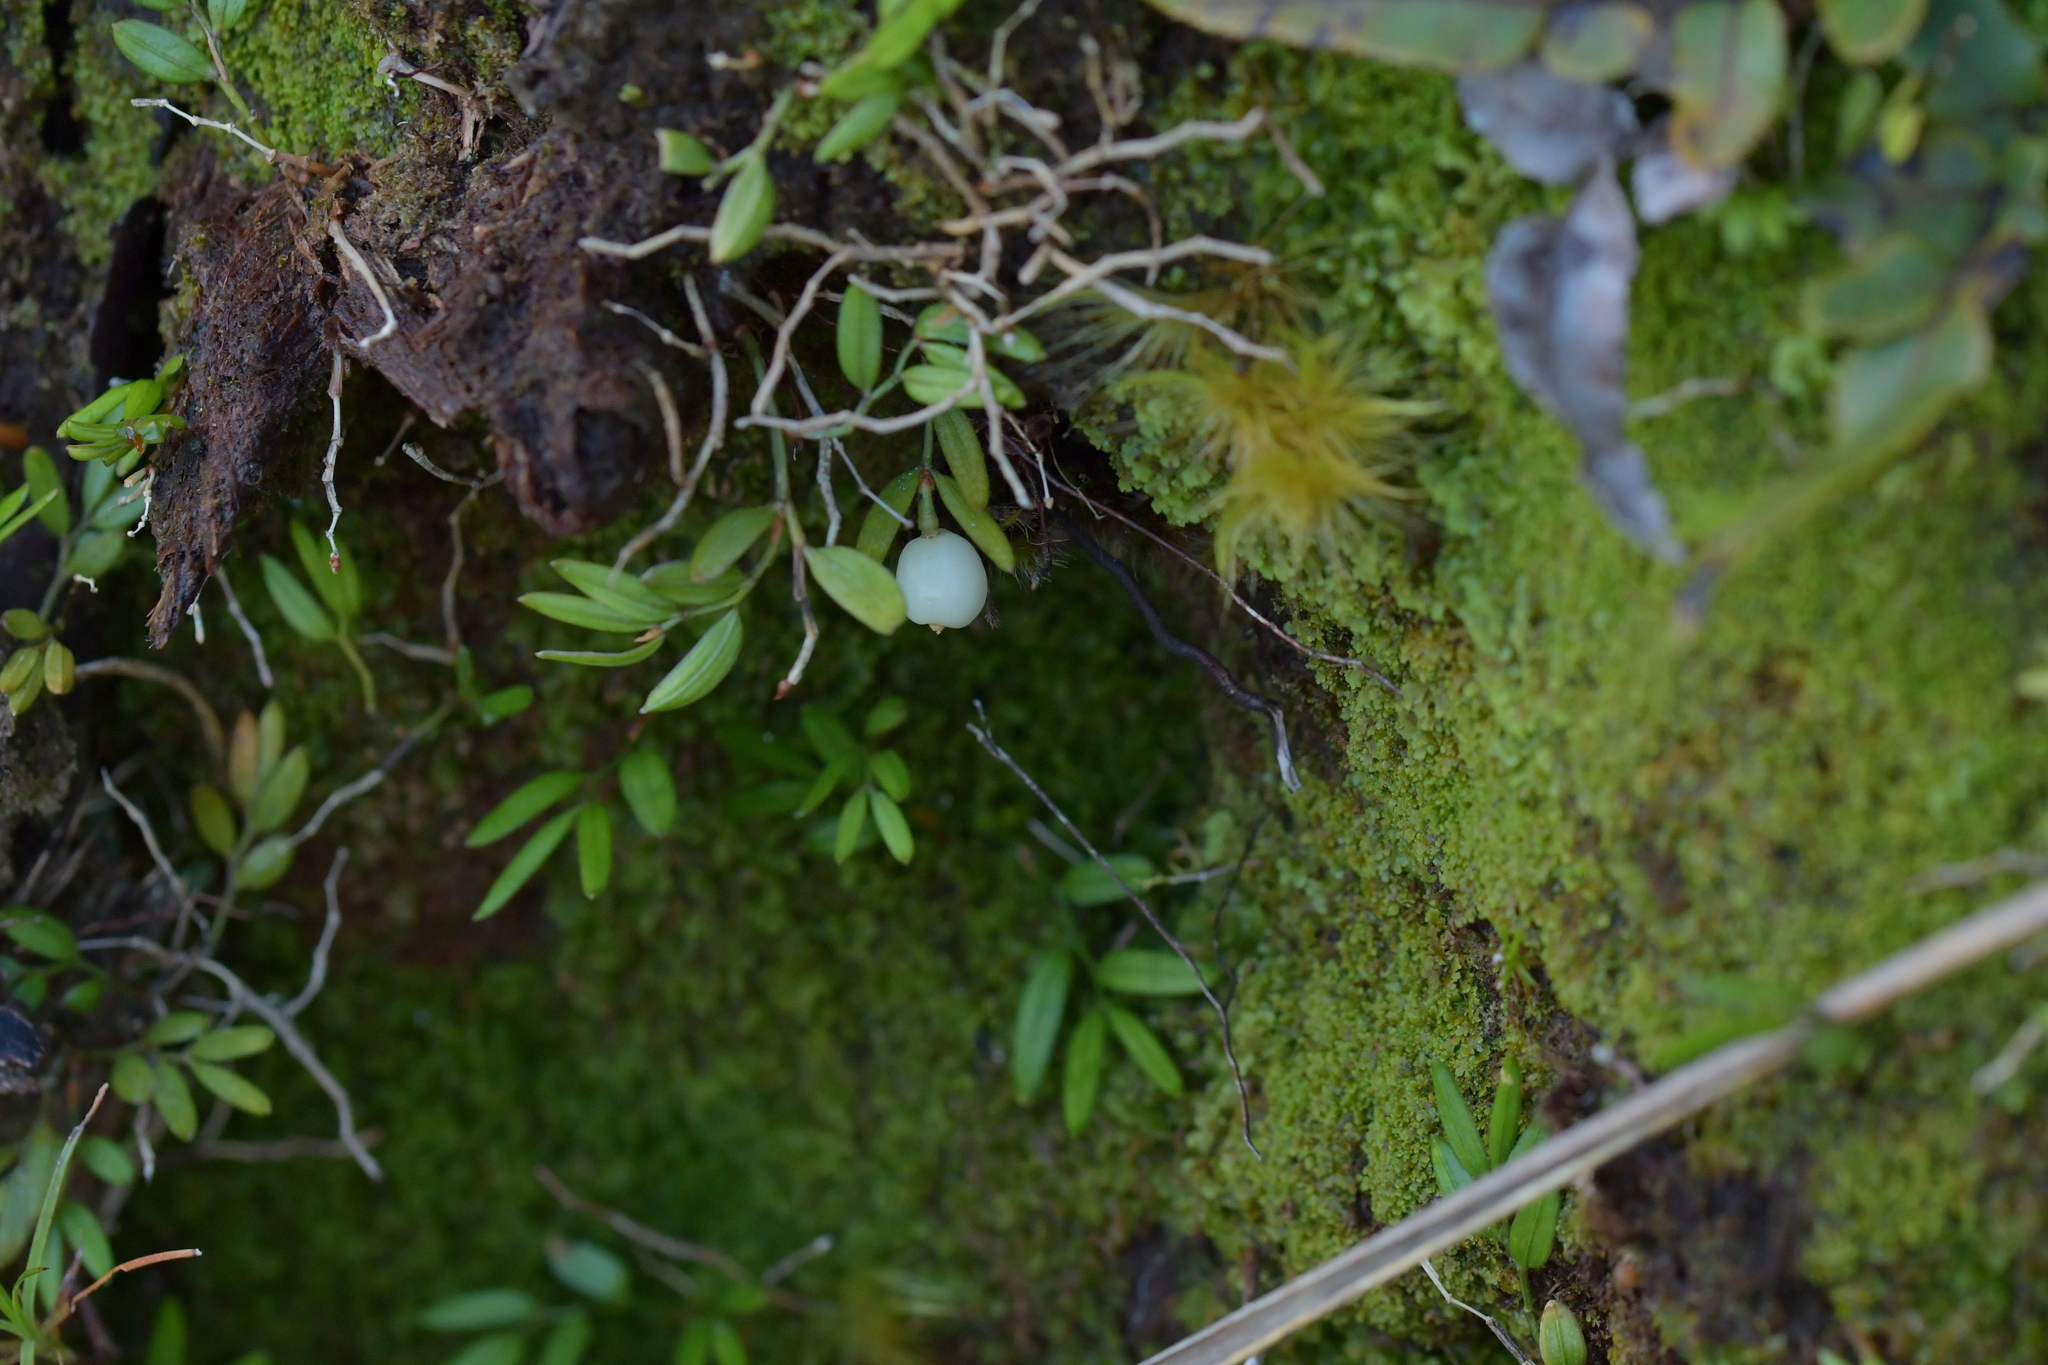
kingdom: Plantae
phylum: Tracheophyta
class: Liliopsida
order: Liliales
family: Alstroemeriaceae
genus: Luzuriaga
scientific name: Luzuriaga parviflora
